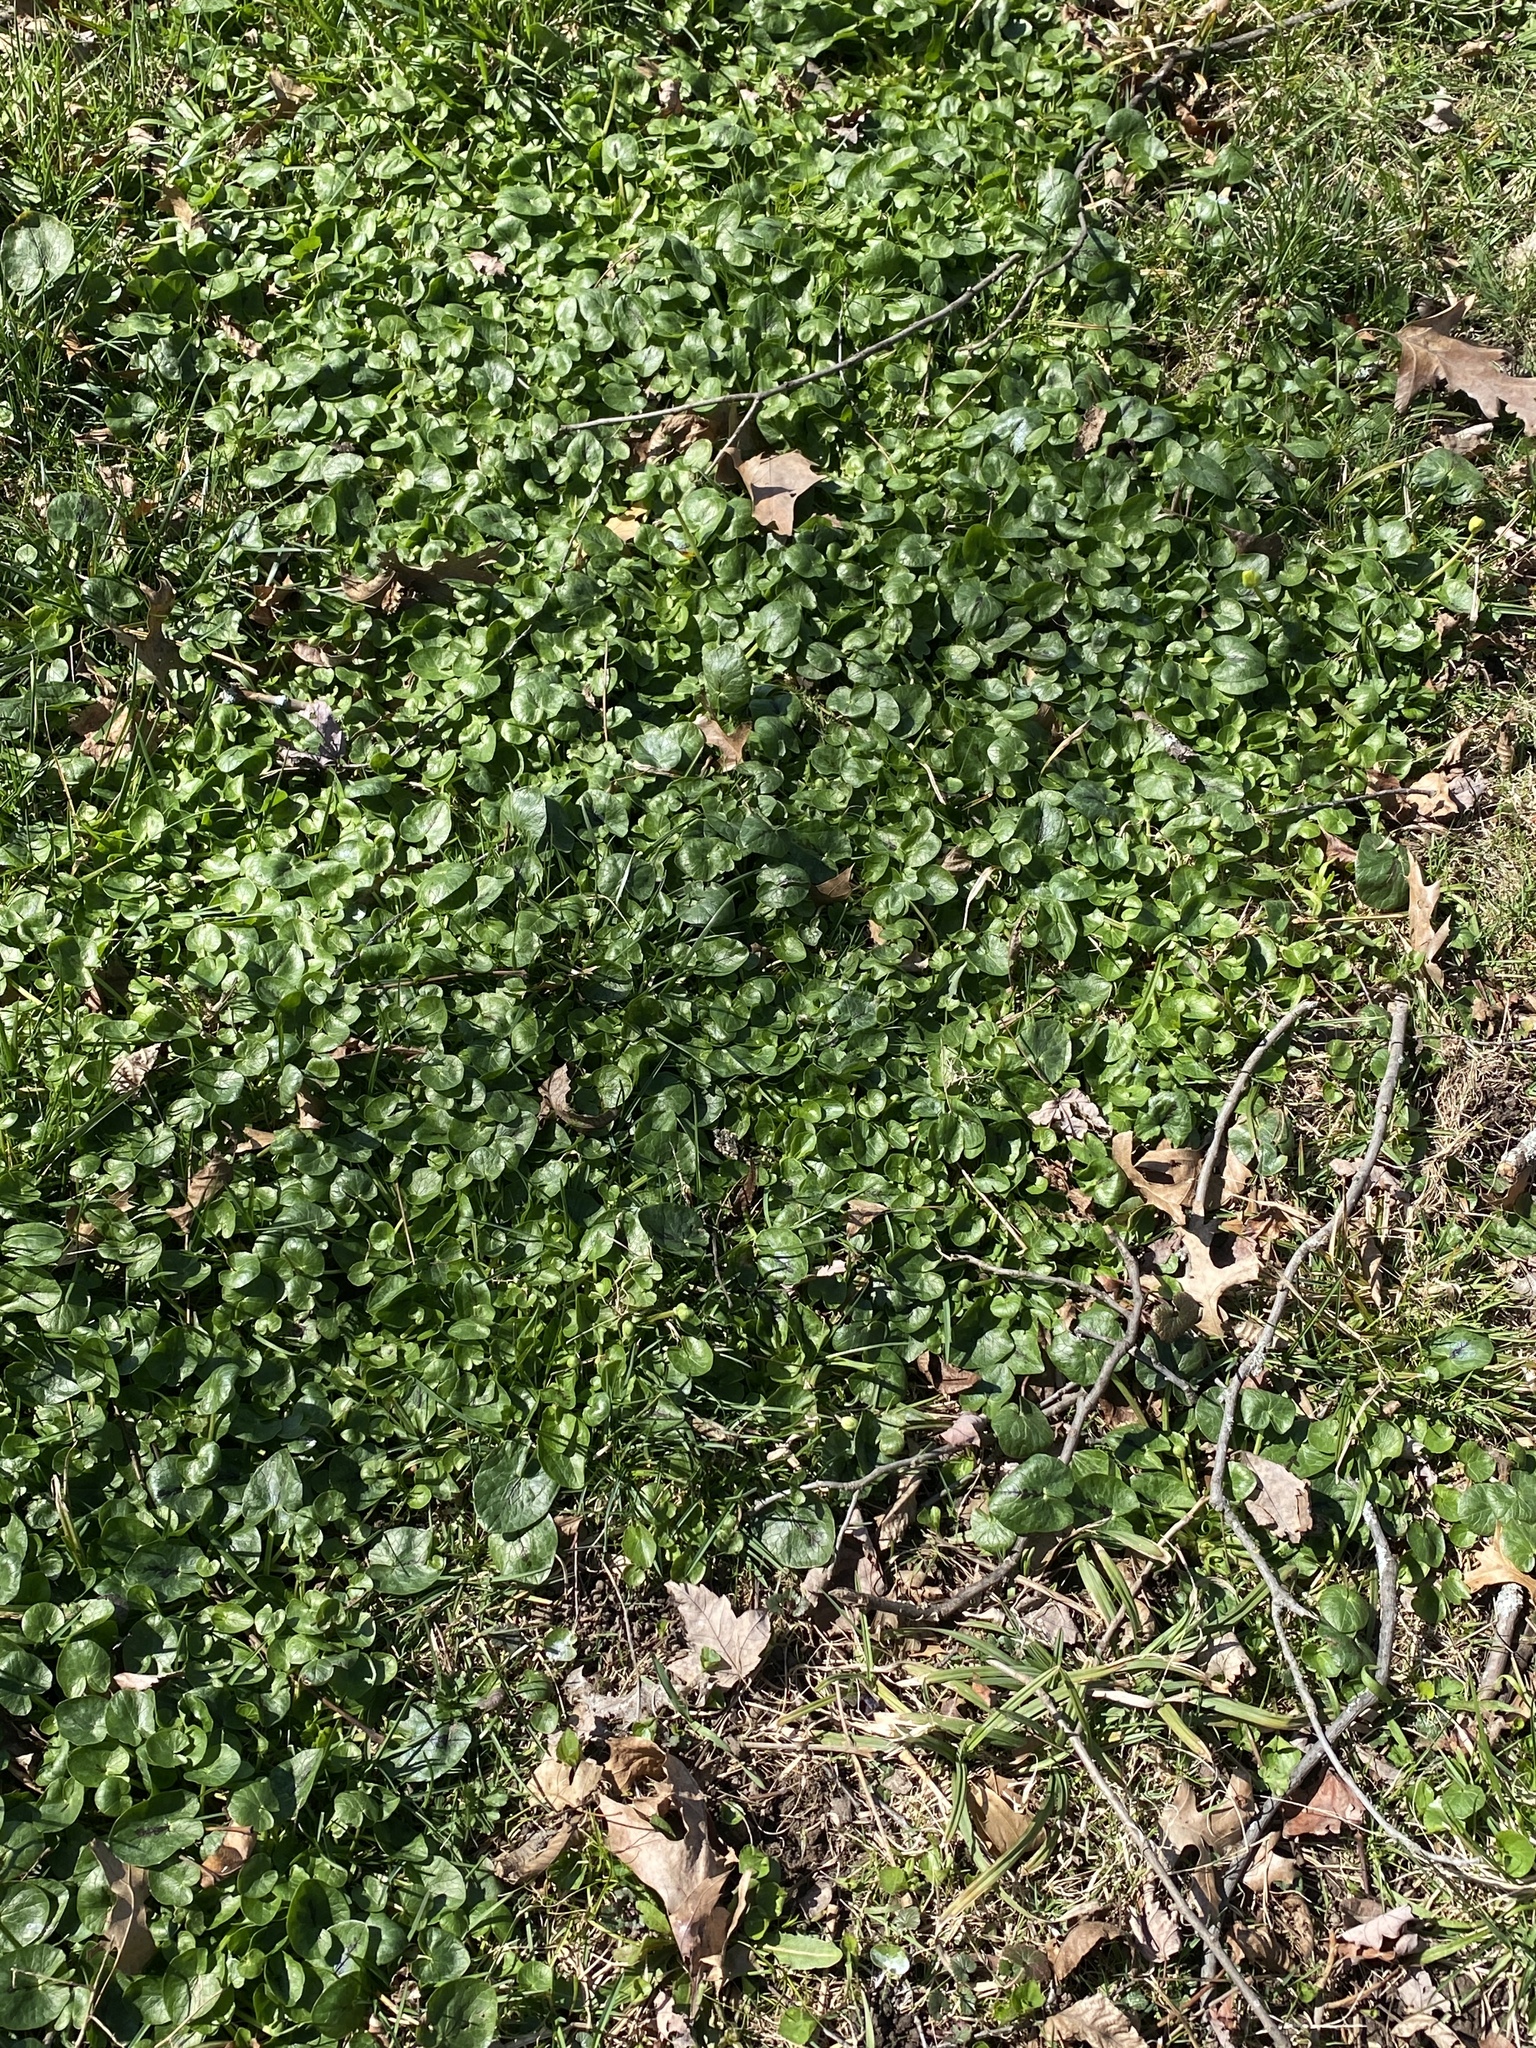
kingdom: Plantae
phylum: Tracheophyta
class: Magnoliopsida
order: Ranunculales
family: Ranunculaceae
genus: Ficaria
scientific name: Ficaria verna
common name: Lesser celandine
